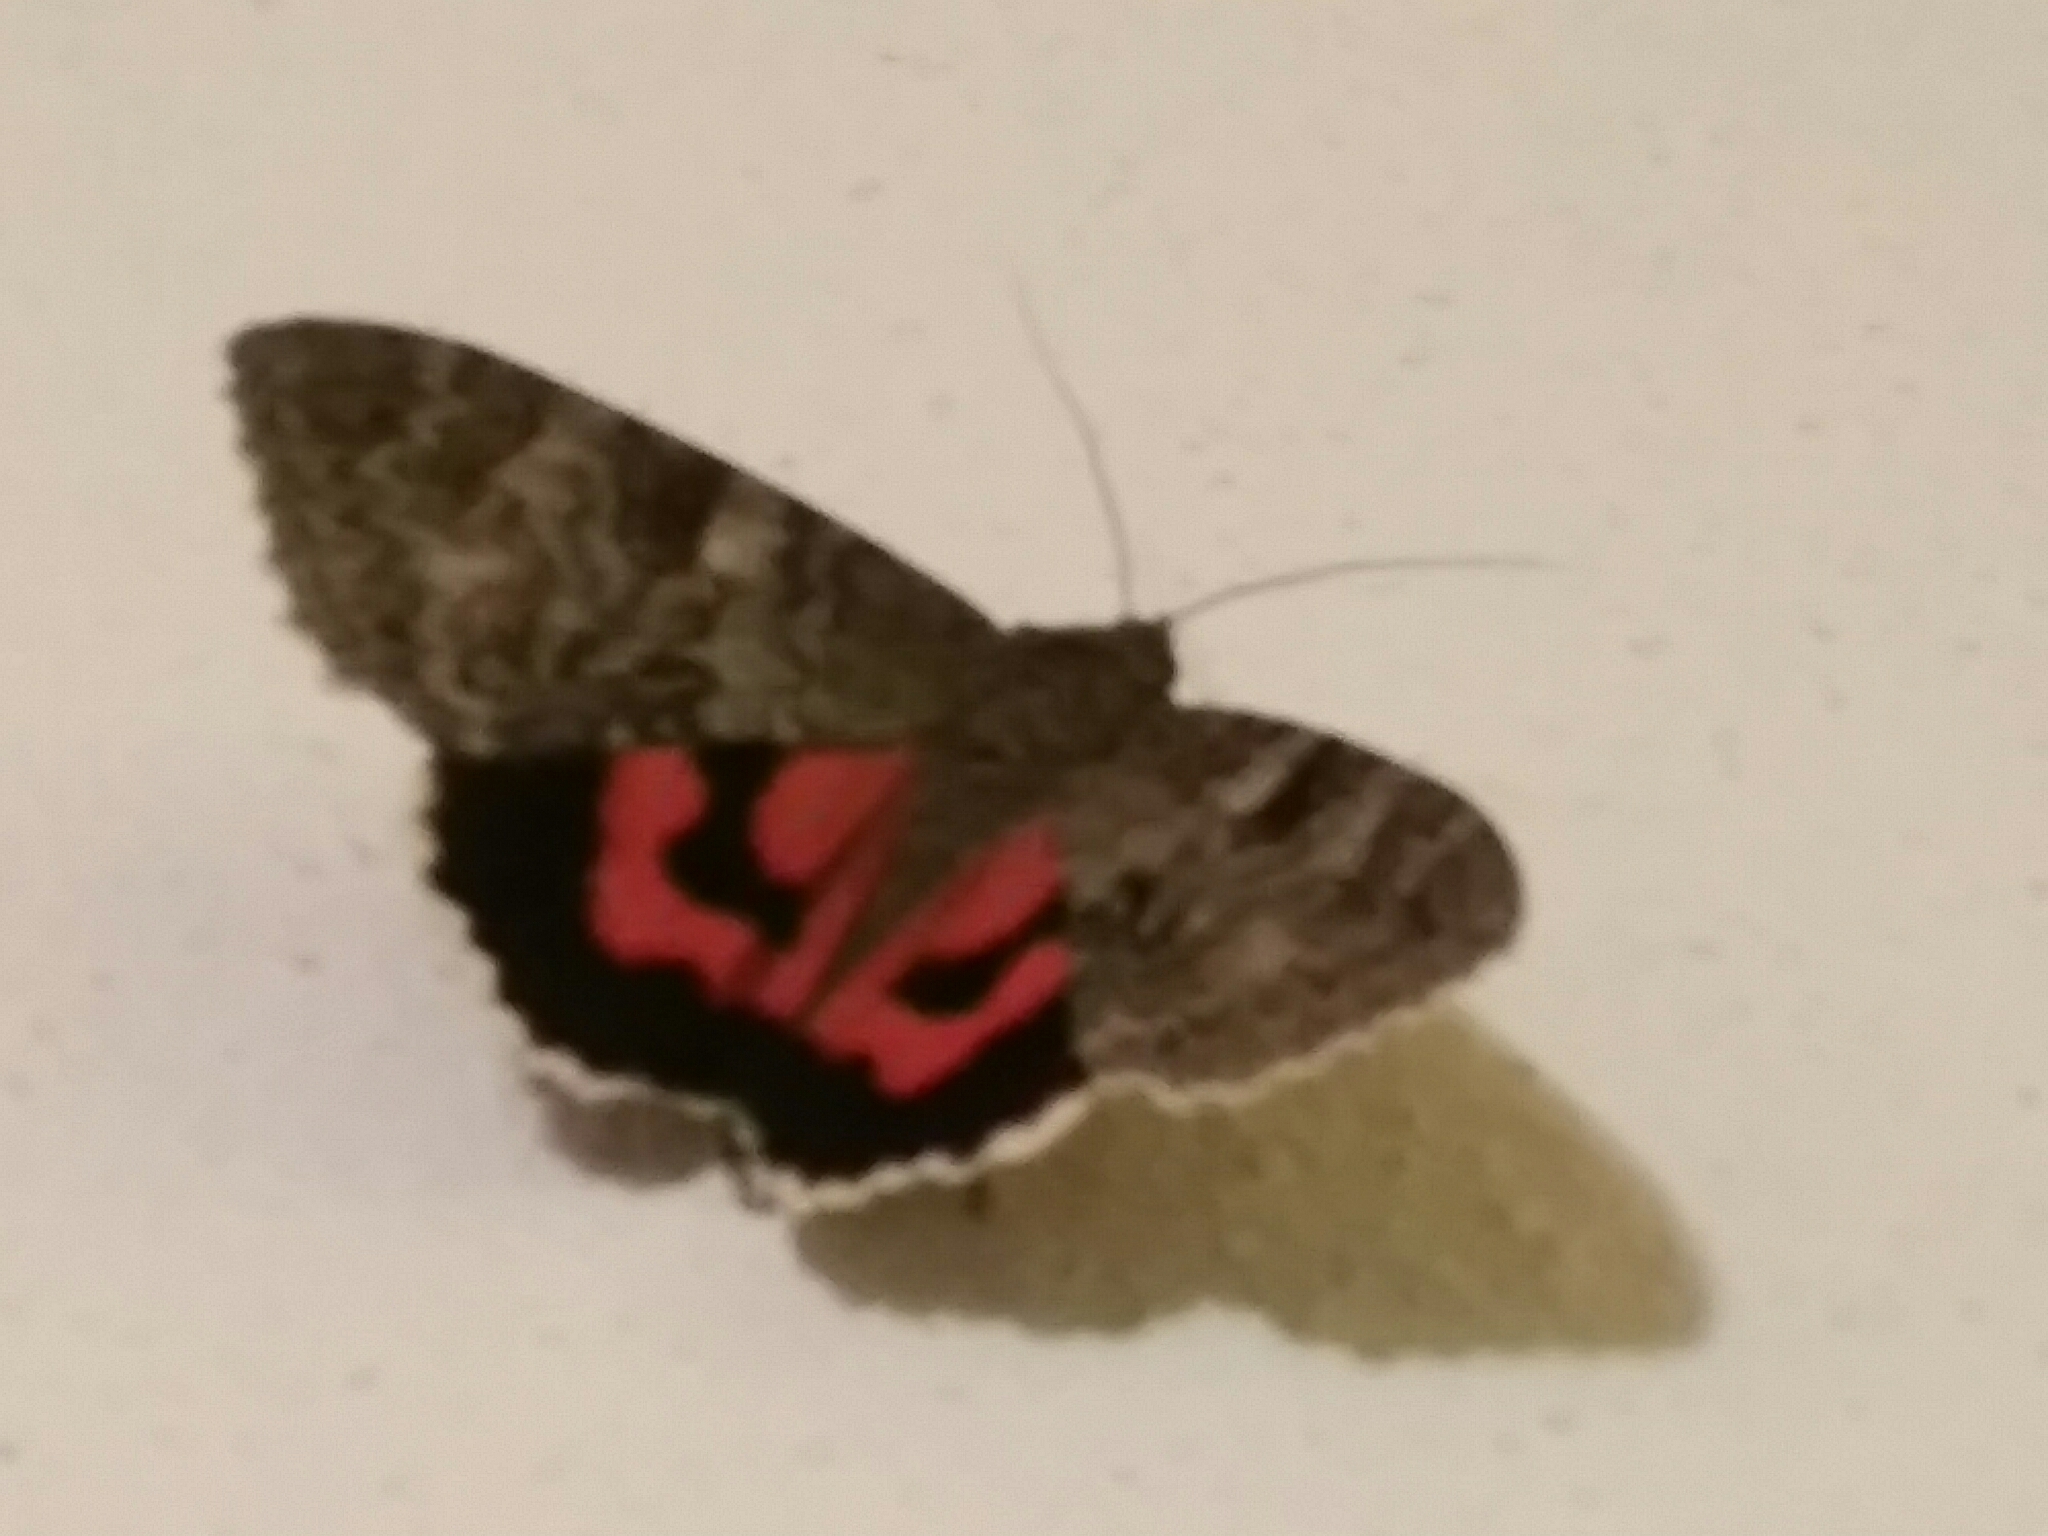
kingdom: Animalia
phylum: Arthropoda
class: Insecta
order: Lepidoptera
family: Erebidae
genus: Catocala
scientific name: Catocala nupta
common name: Red underwing
